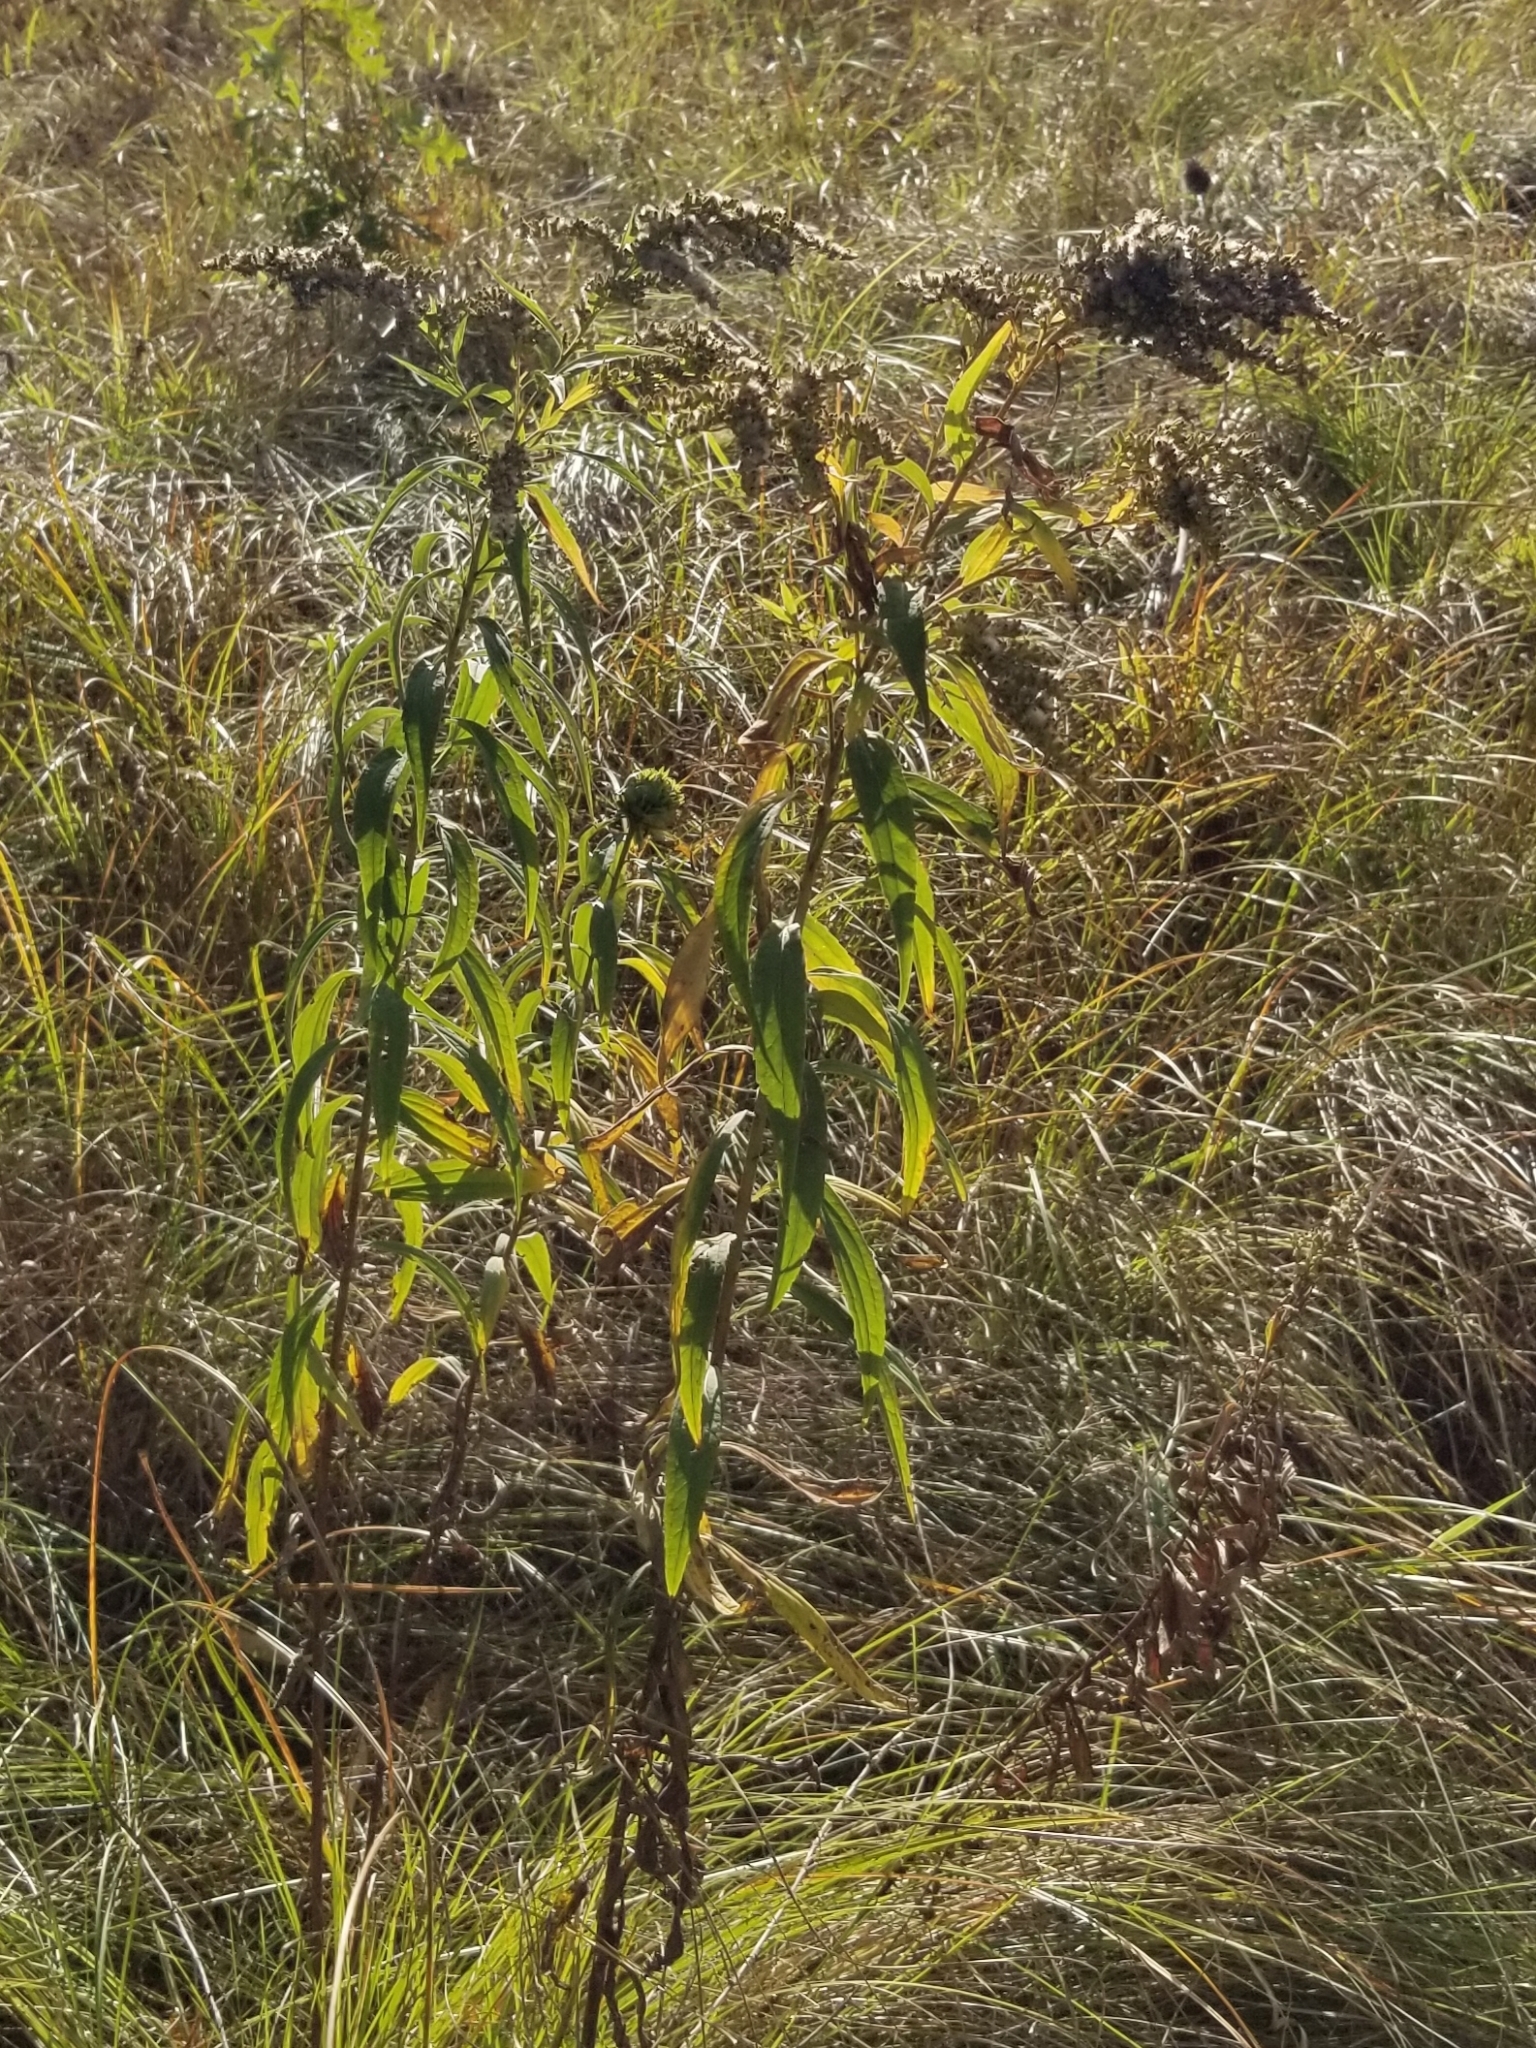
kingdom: Animalia
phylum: Arthropoda
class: Insecta
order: Diptera
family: Cecidomyiidae
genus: Rhopalomyia
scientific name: Rhopalomyia capitata
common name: Giant goldenrod bunch gall midge
